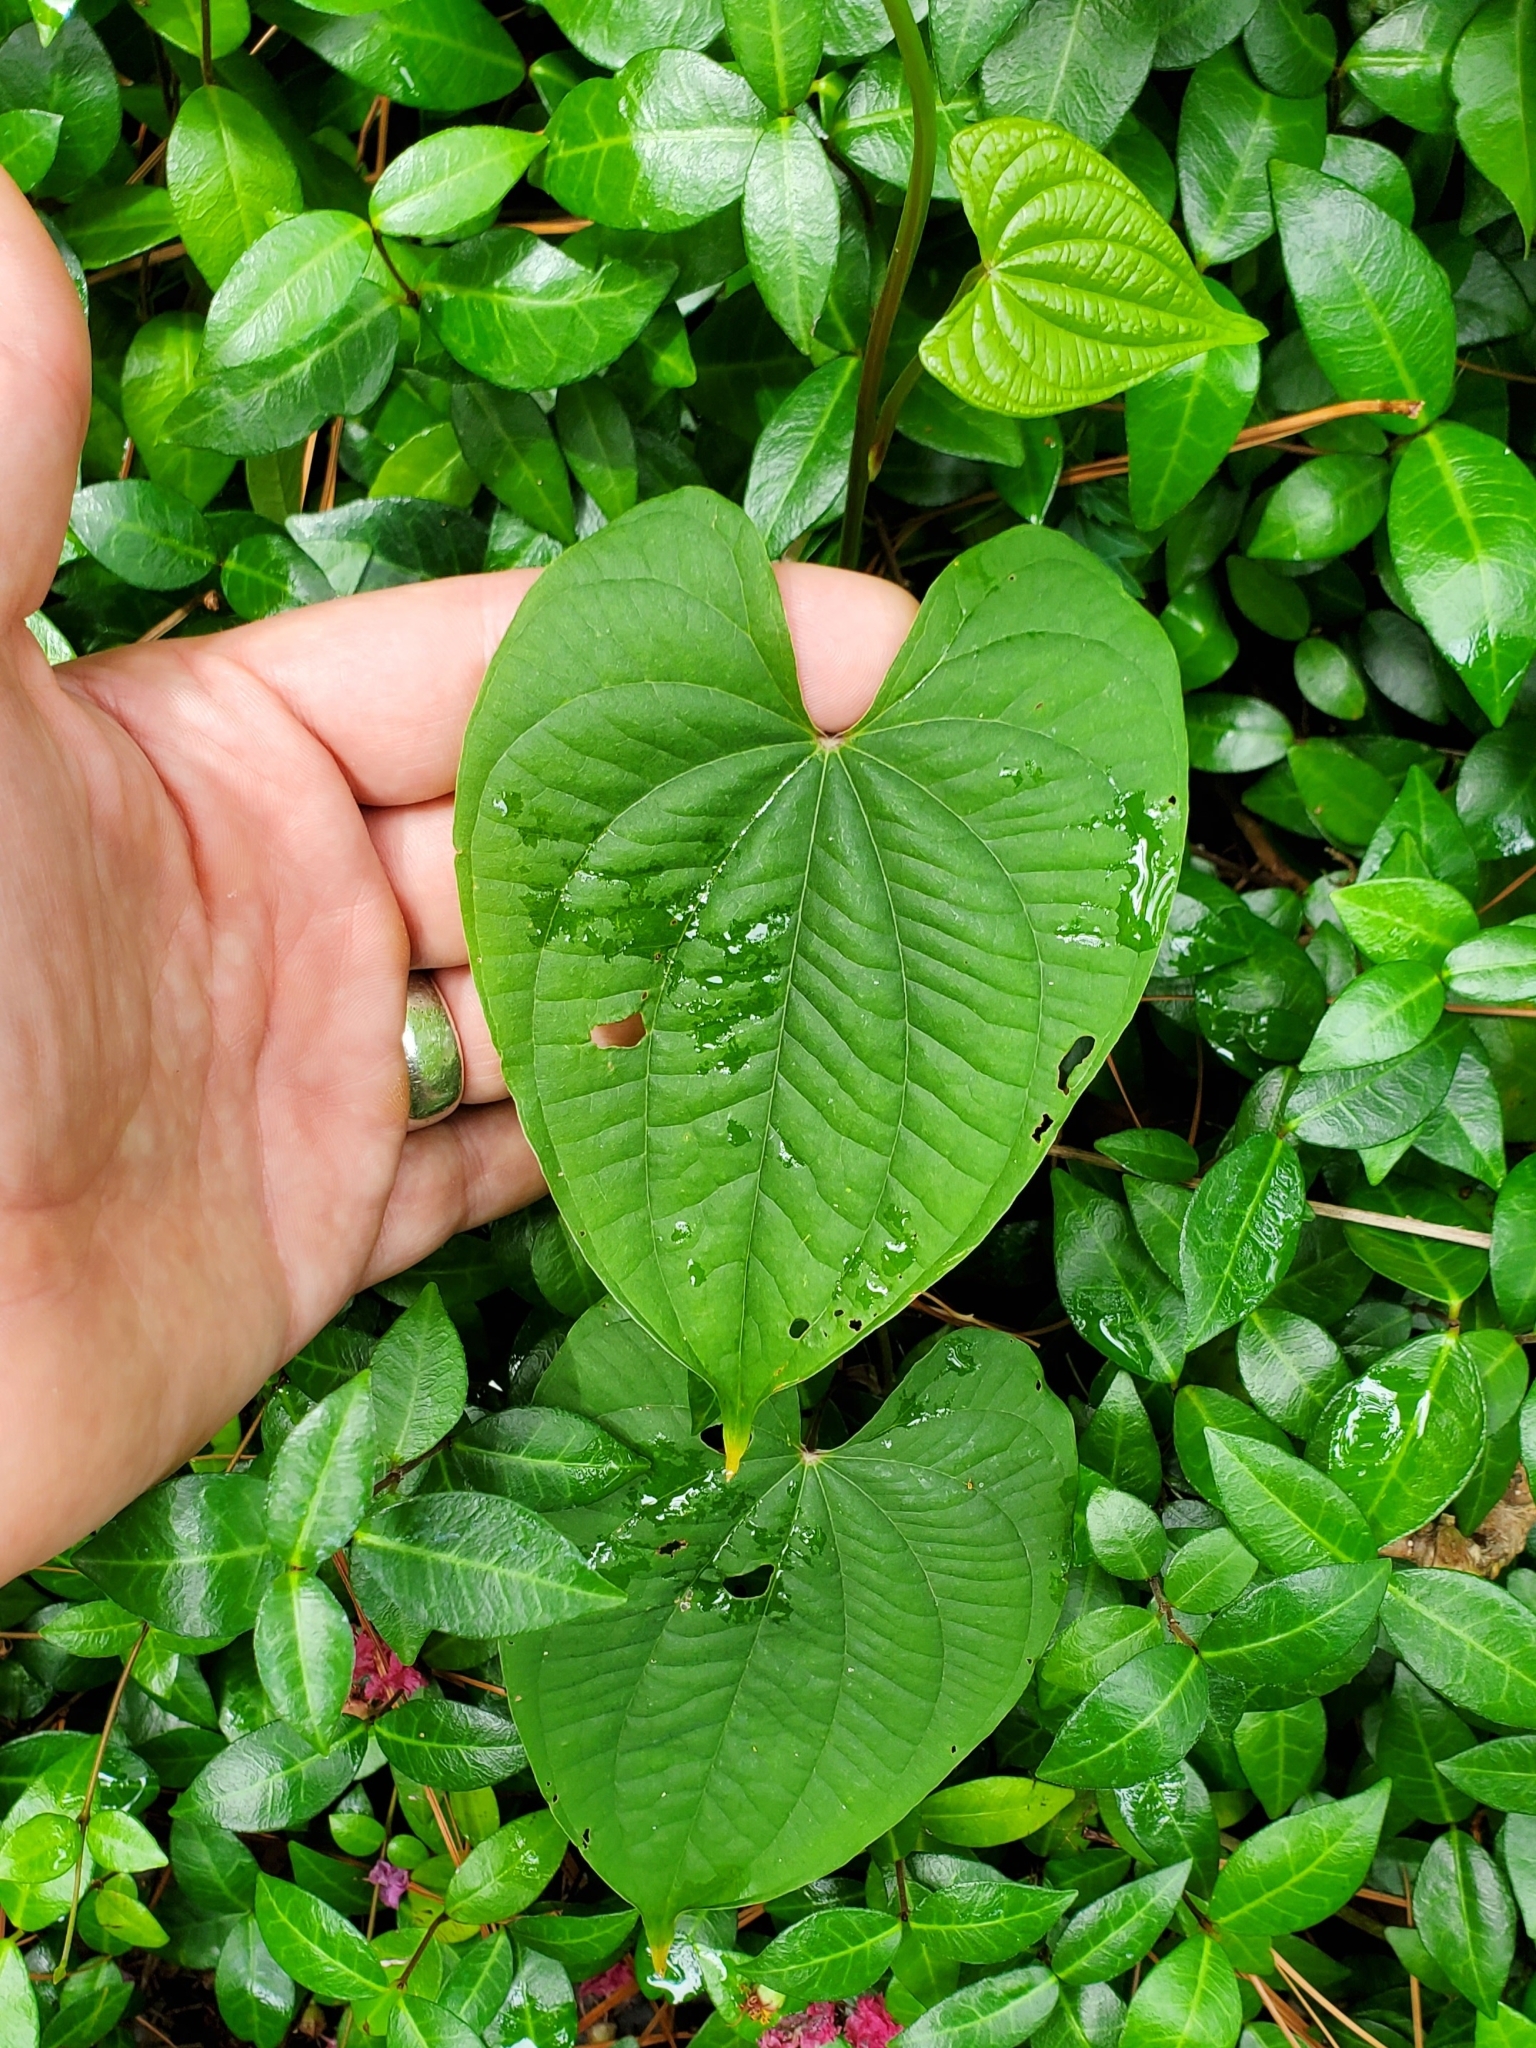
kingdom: Plantae
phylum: Tracheophyta
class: Liliopsida
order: Dioscoreales
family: Dioscoreaceae
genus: Dioscorea
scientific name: Dioscorea bulbifera
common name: Air yam
